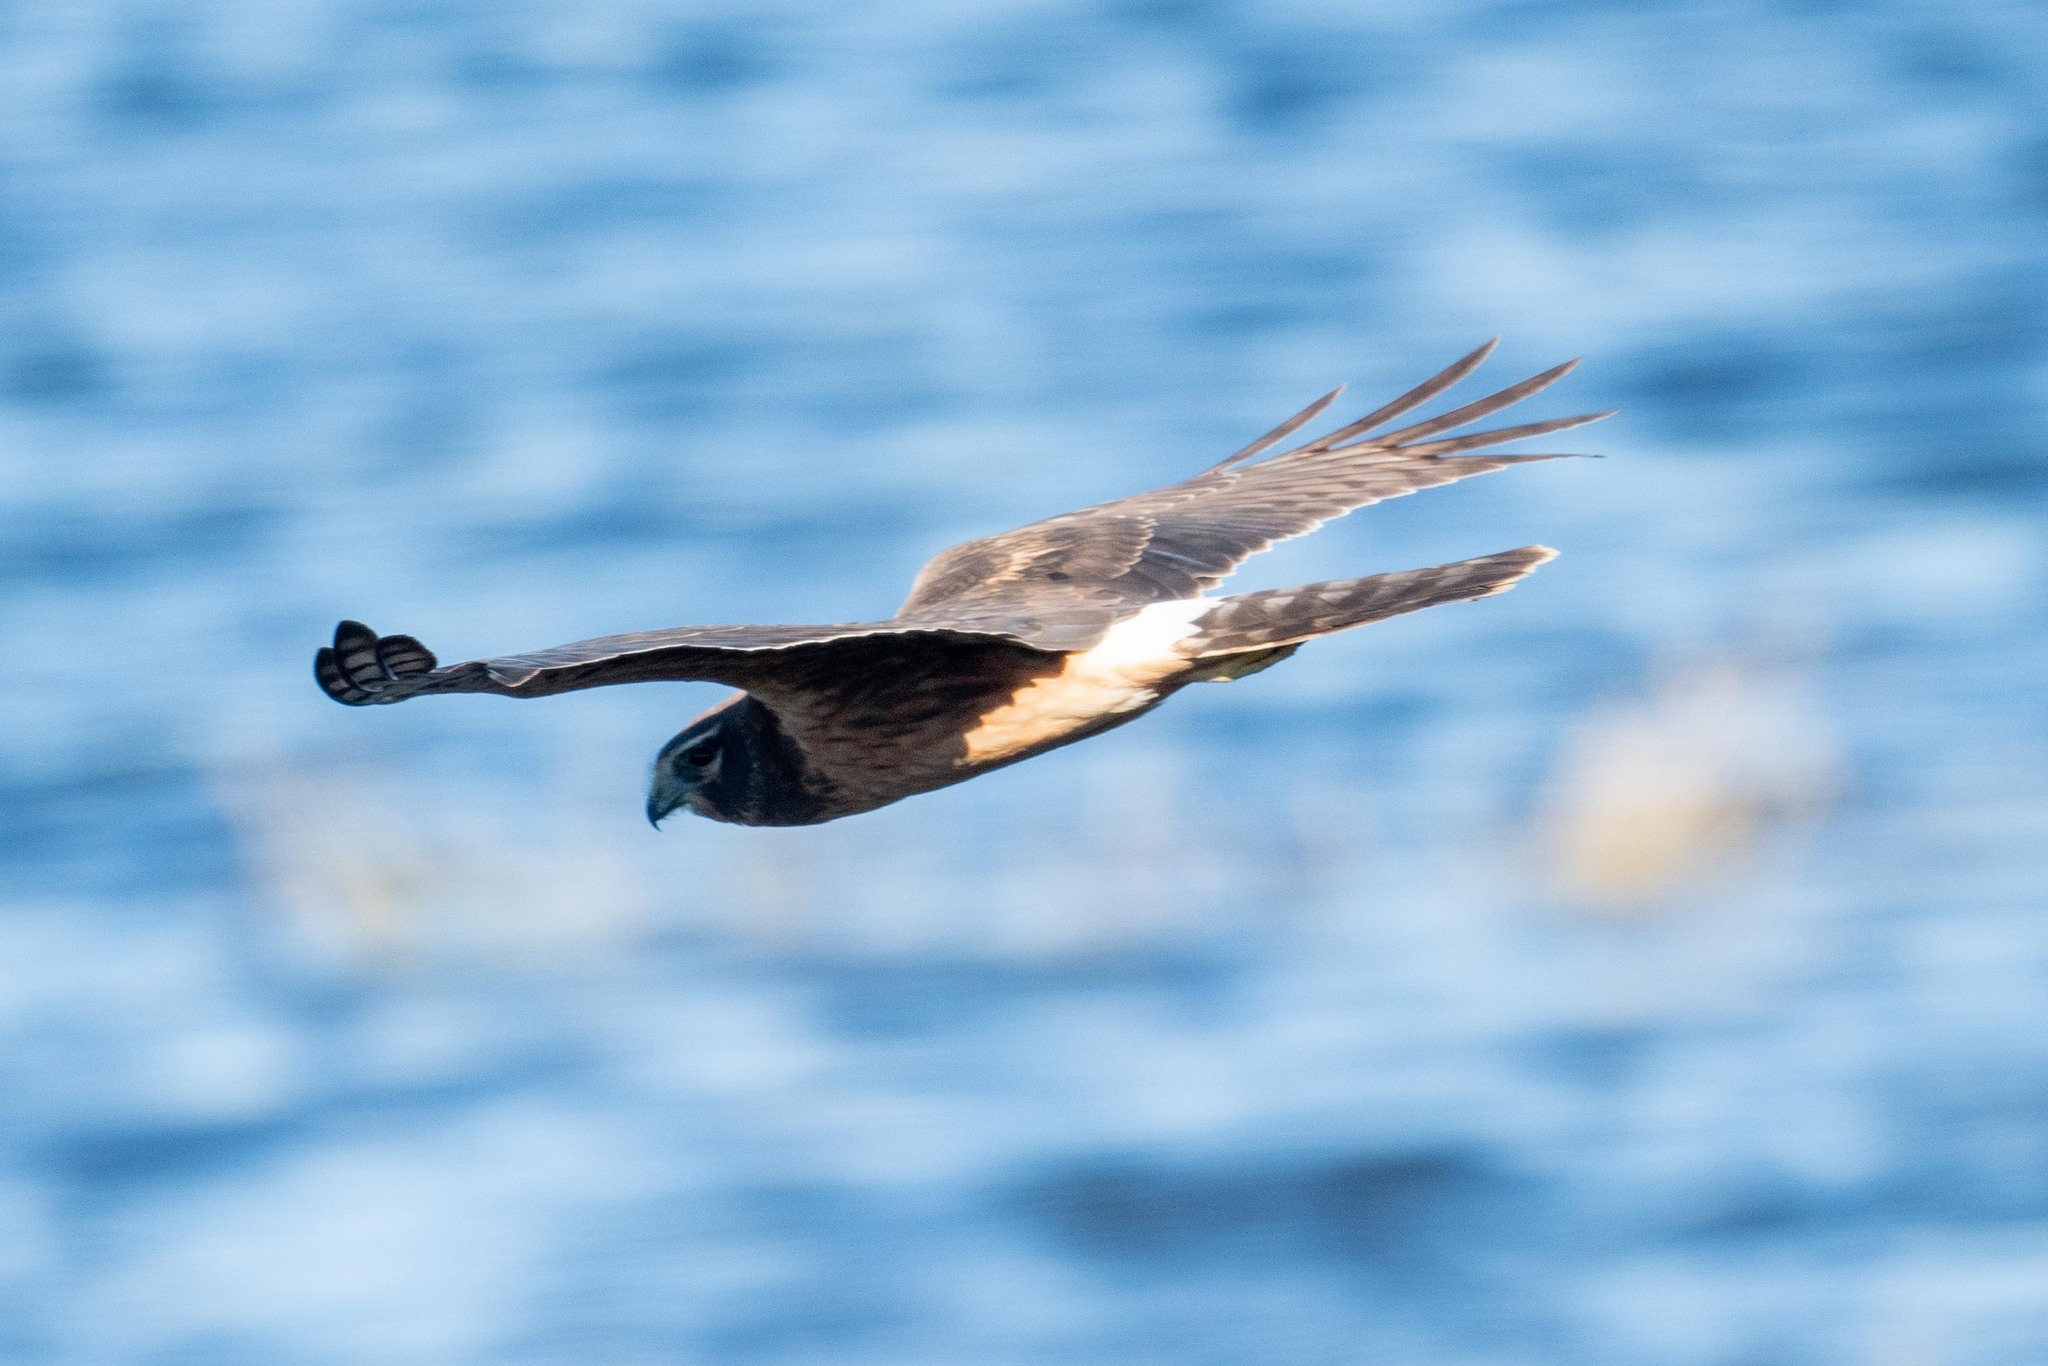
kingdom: Animalia
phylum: Chordata
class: Aves
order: Accipitriformes
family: Accipitridae
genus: Circus
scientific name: Circus cyaneus
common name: Hen harrier
